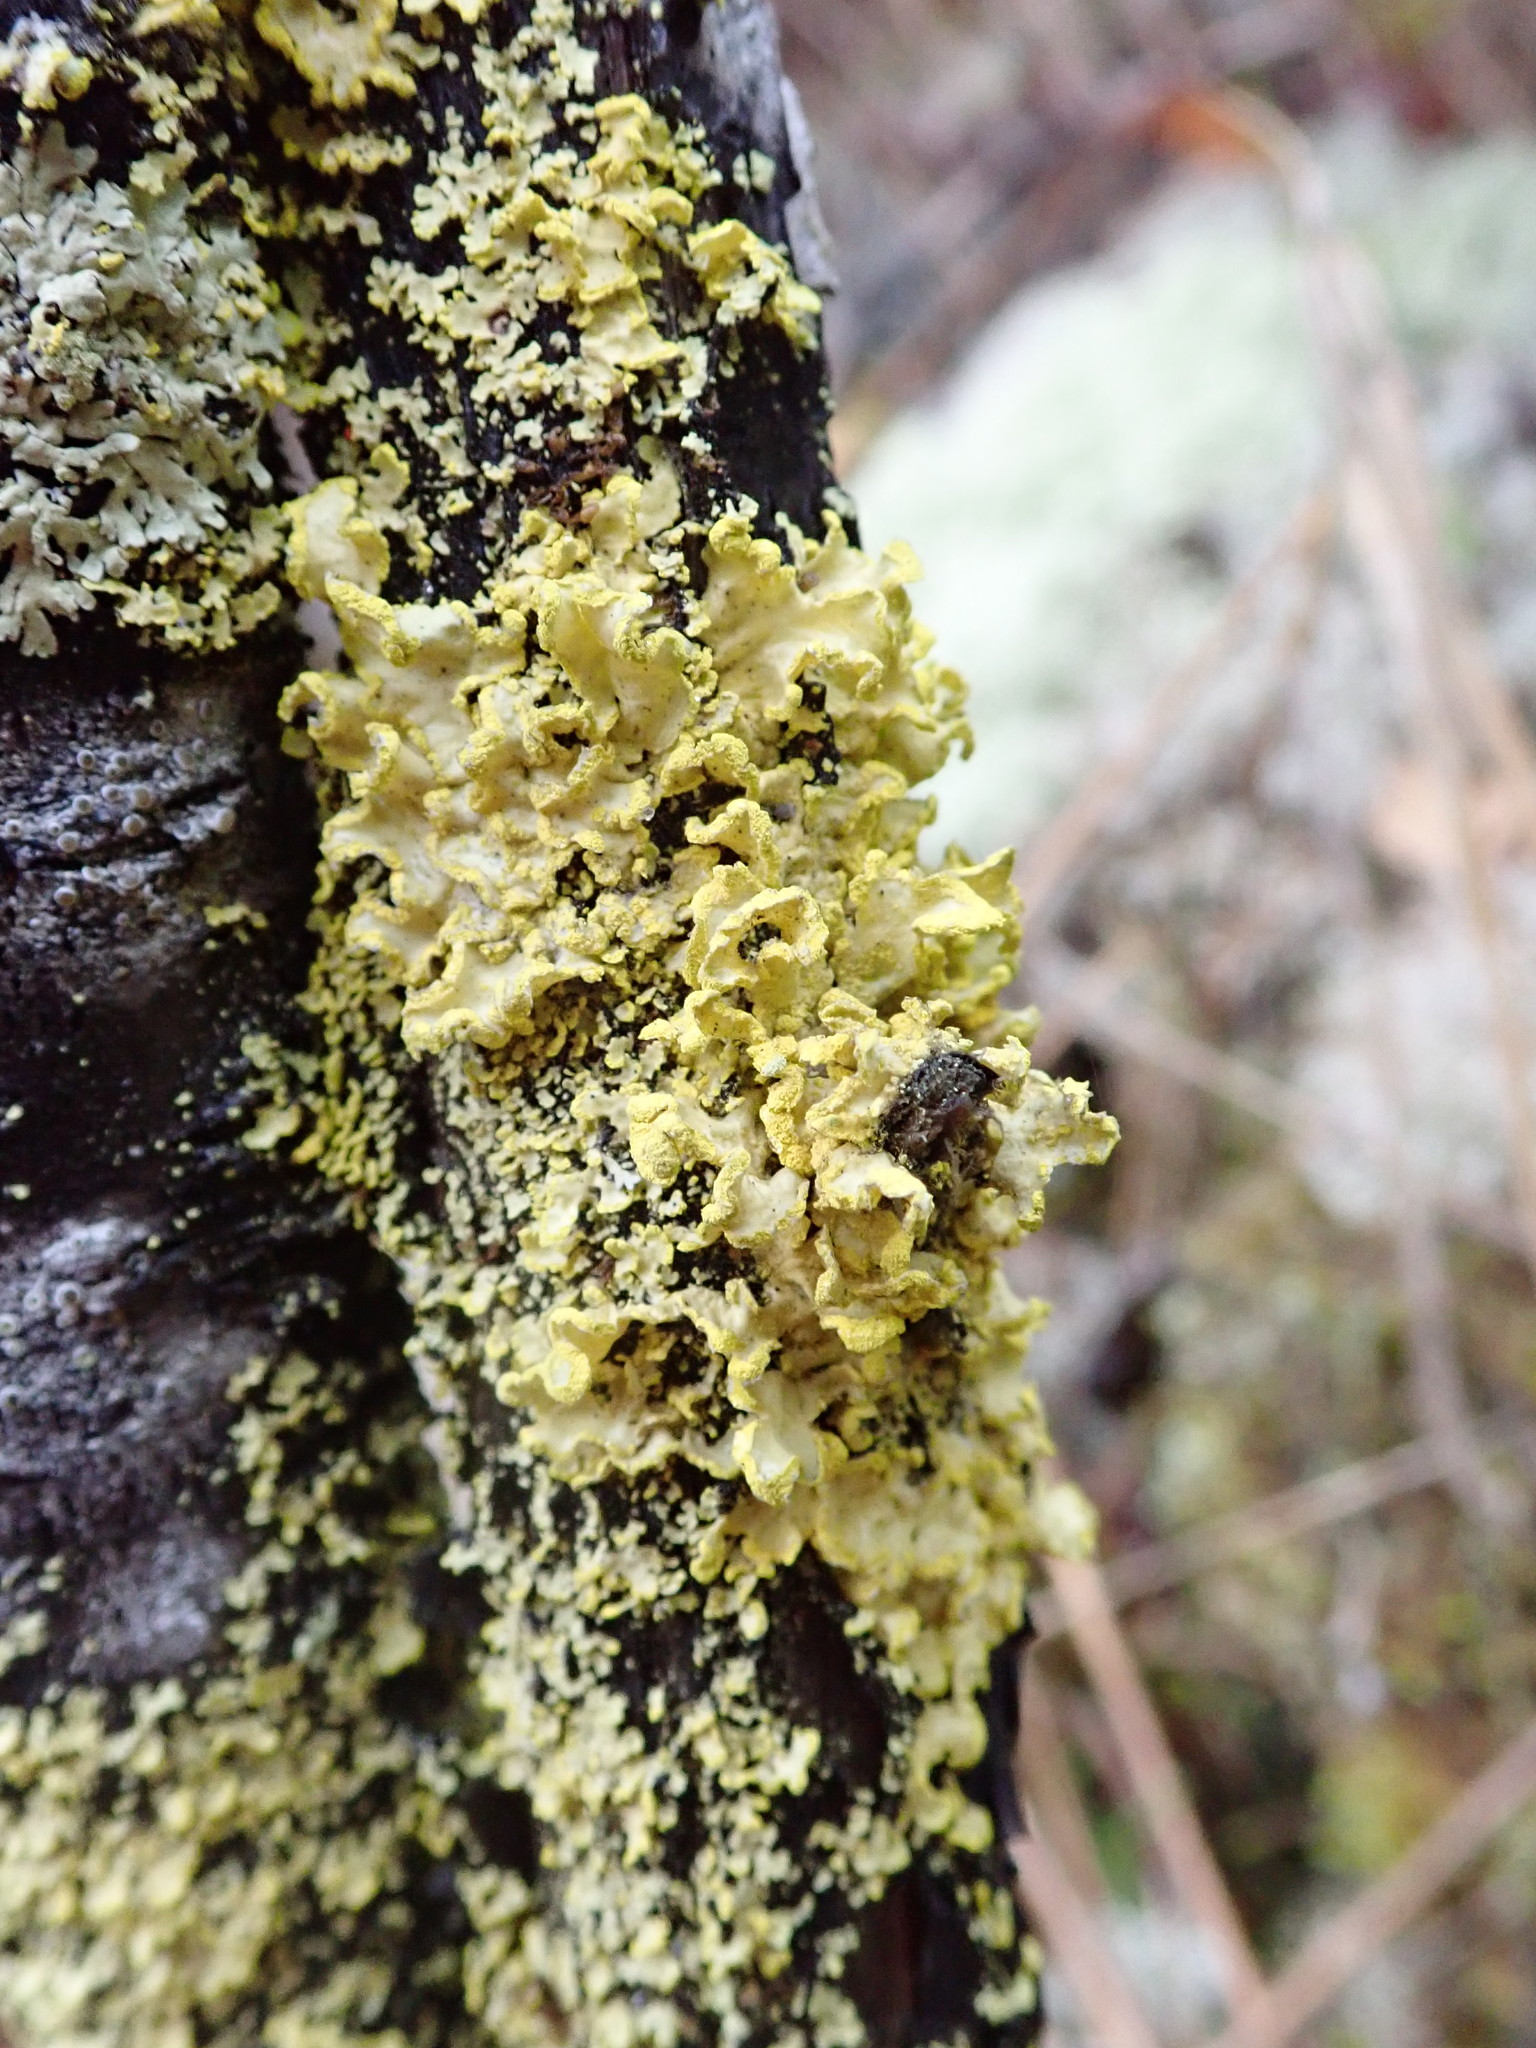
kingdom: Fungi
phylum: Ascomycota
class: Lecanoromycetes
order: Lecanorales
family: Parmeliaceae
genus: Vulpicida
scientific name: Vulpicida pinastri
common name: Powdered sunshine lichen
